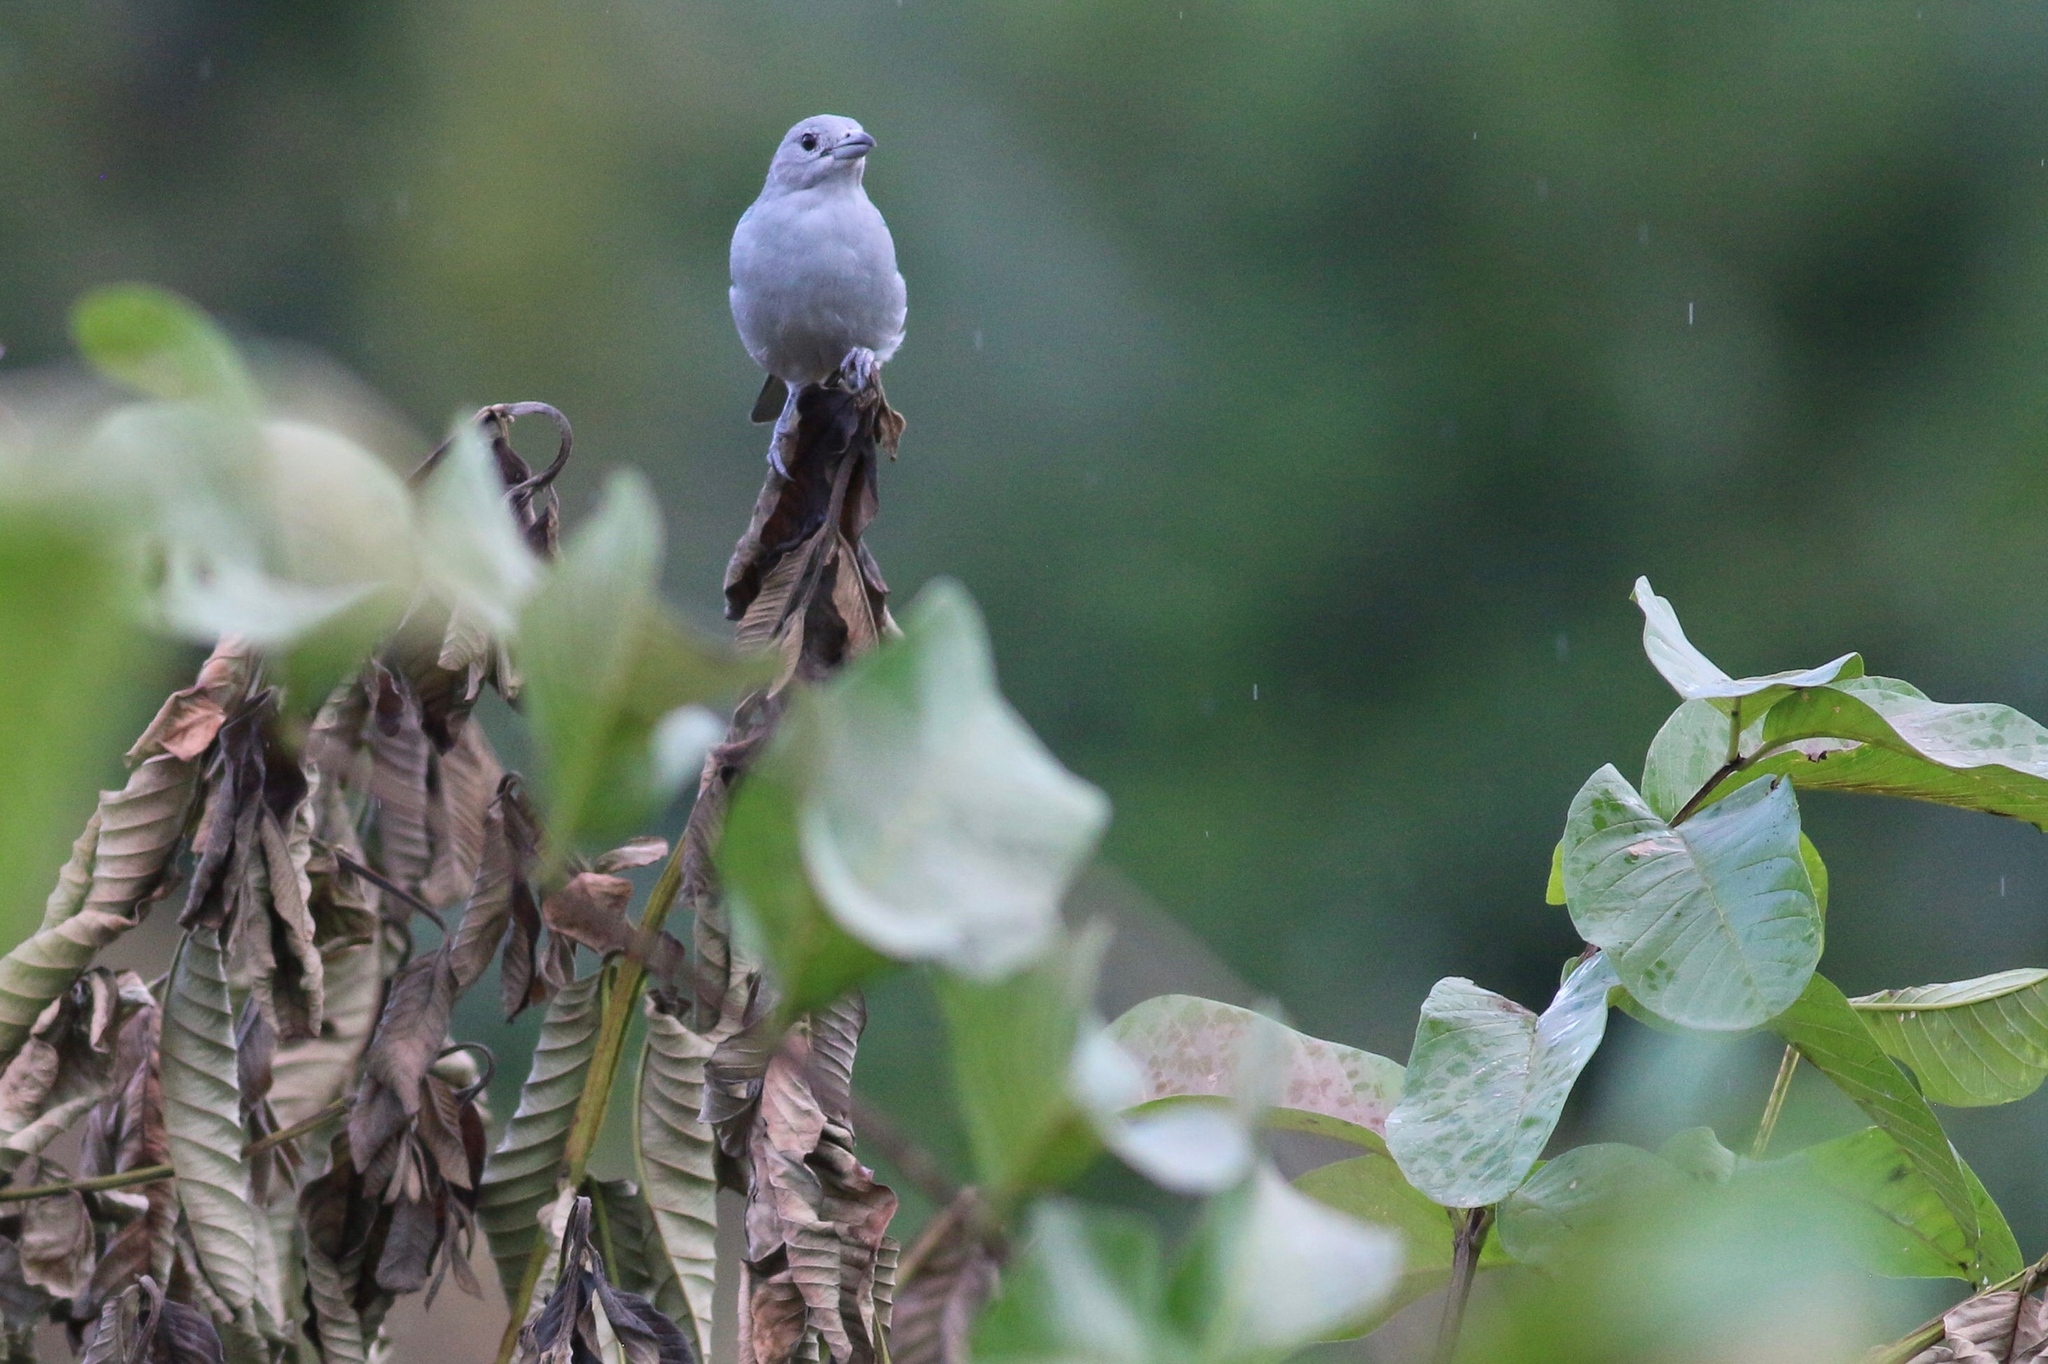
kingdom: Animalia
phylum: Chordata
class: Aves
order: Passeriformes
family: Thraupidae
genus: Thraupis
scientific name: Thraupis sayaca
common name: Sayaca tanager
